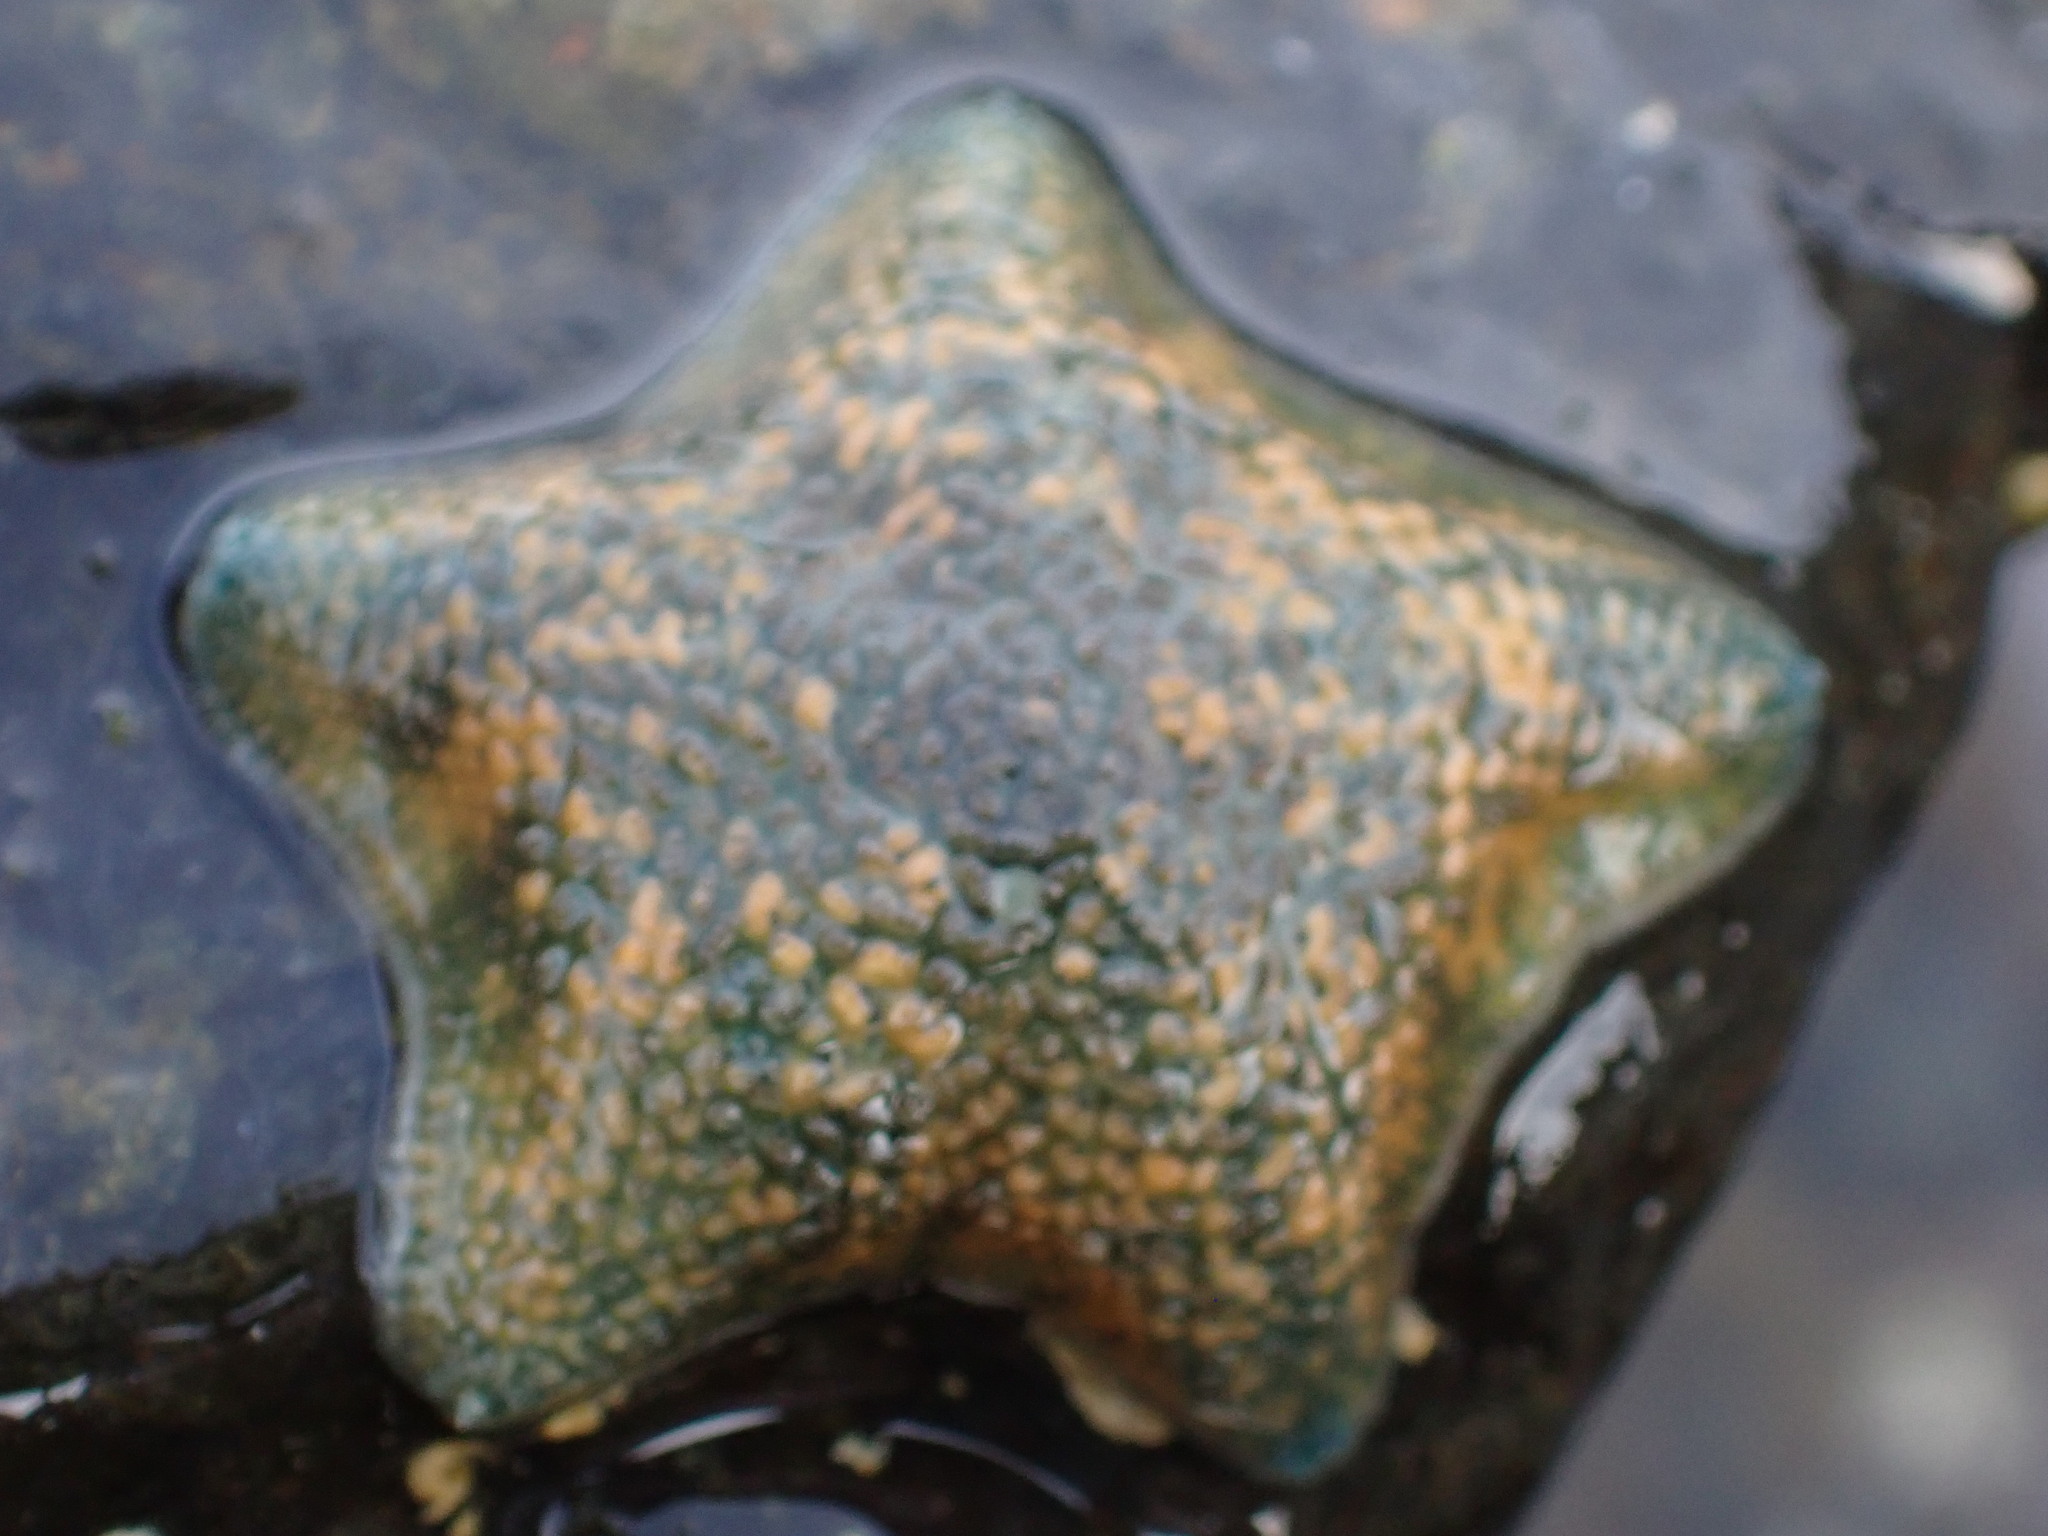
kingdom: Animalia
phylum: Echinodermata
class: Asteroidea
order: Valvatida
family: Asterinidae
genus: Patiriella
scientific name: Patiriella regularis
